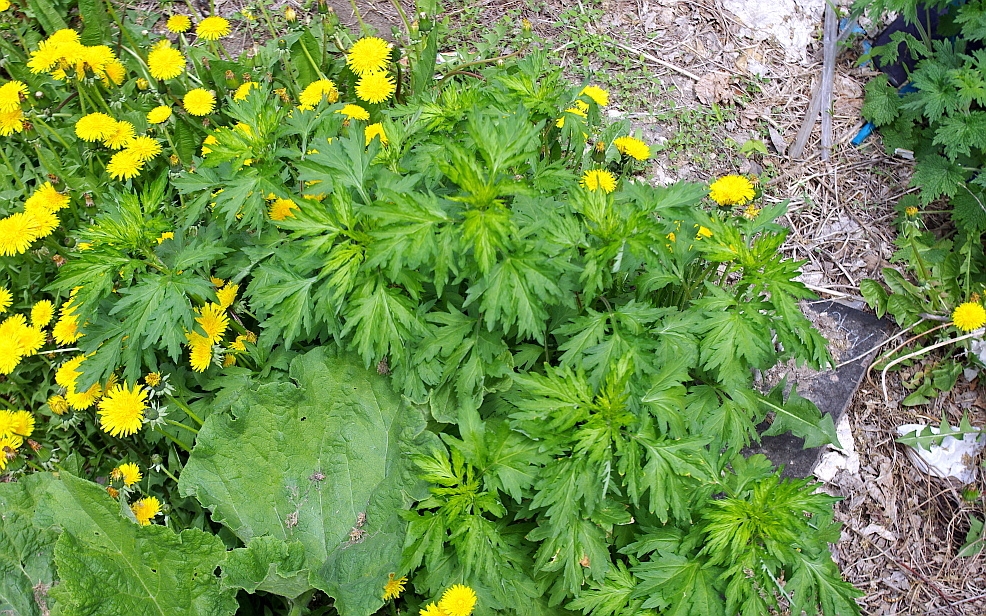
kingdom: Plantae
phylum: Tracheophyta
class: Magnoliopsida
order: Asterales
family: Asteraceae
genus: Artemisia
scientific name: Artemisia vulgaris
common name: Mugwort
